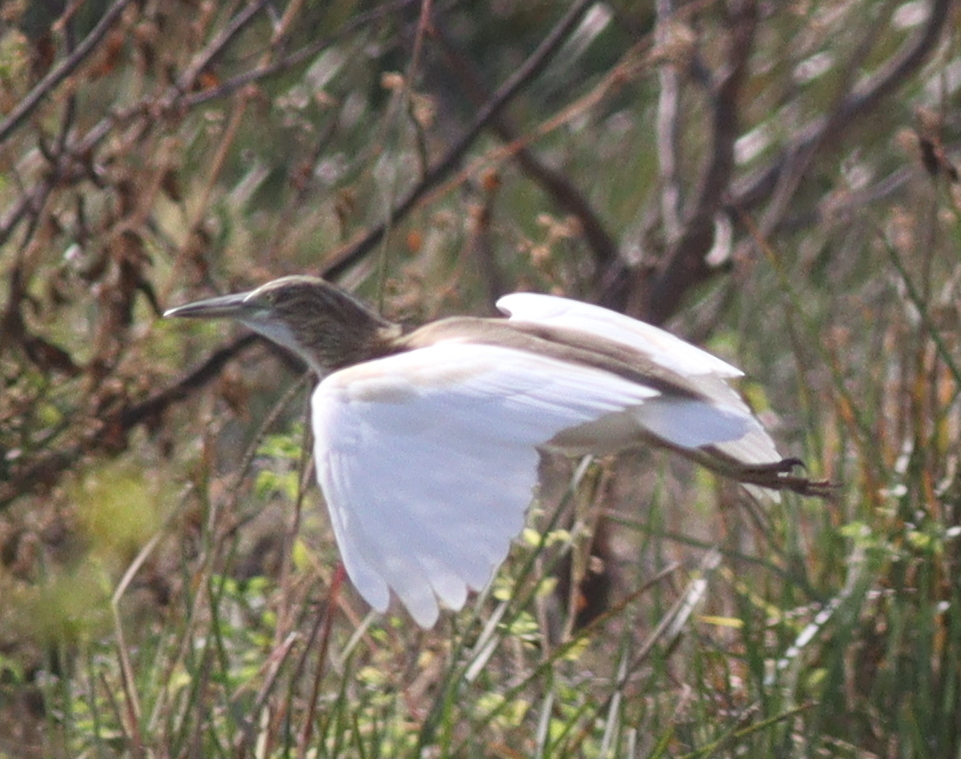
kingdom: Animalia
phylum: Chordata
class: Aves
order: Pelecaniformes
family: Ardeidae
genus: Ardeola
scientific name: Ardeola ralloides
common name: Squacco heron
